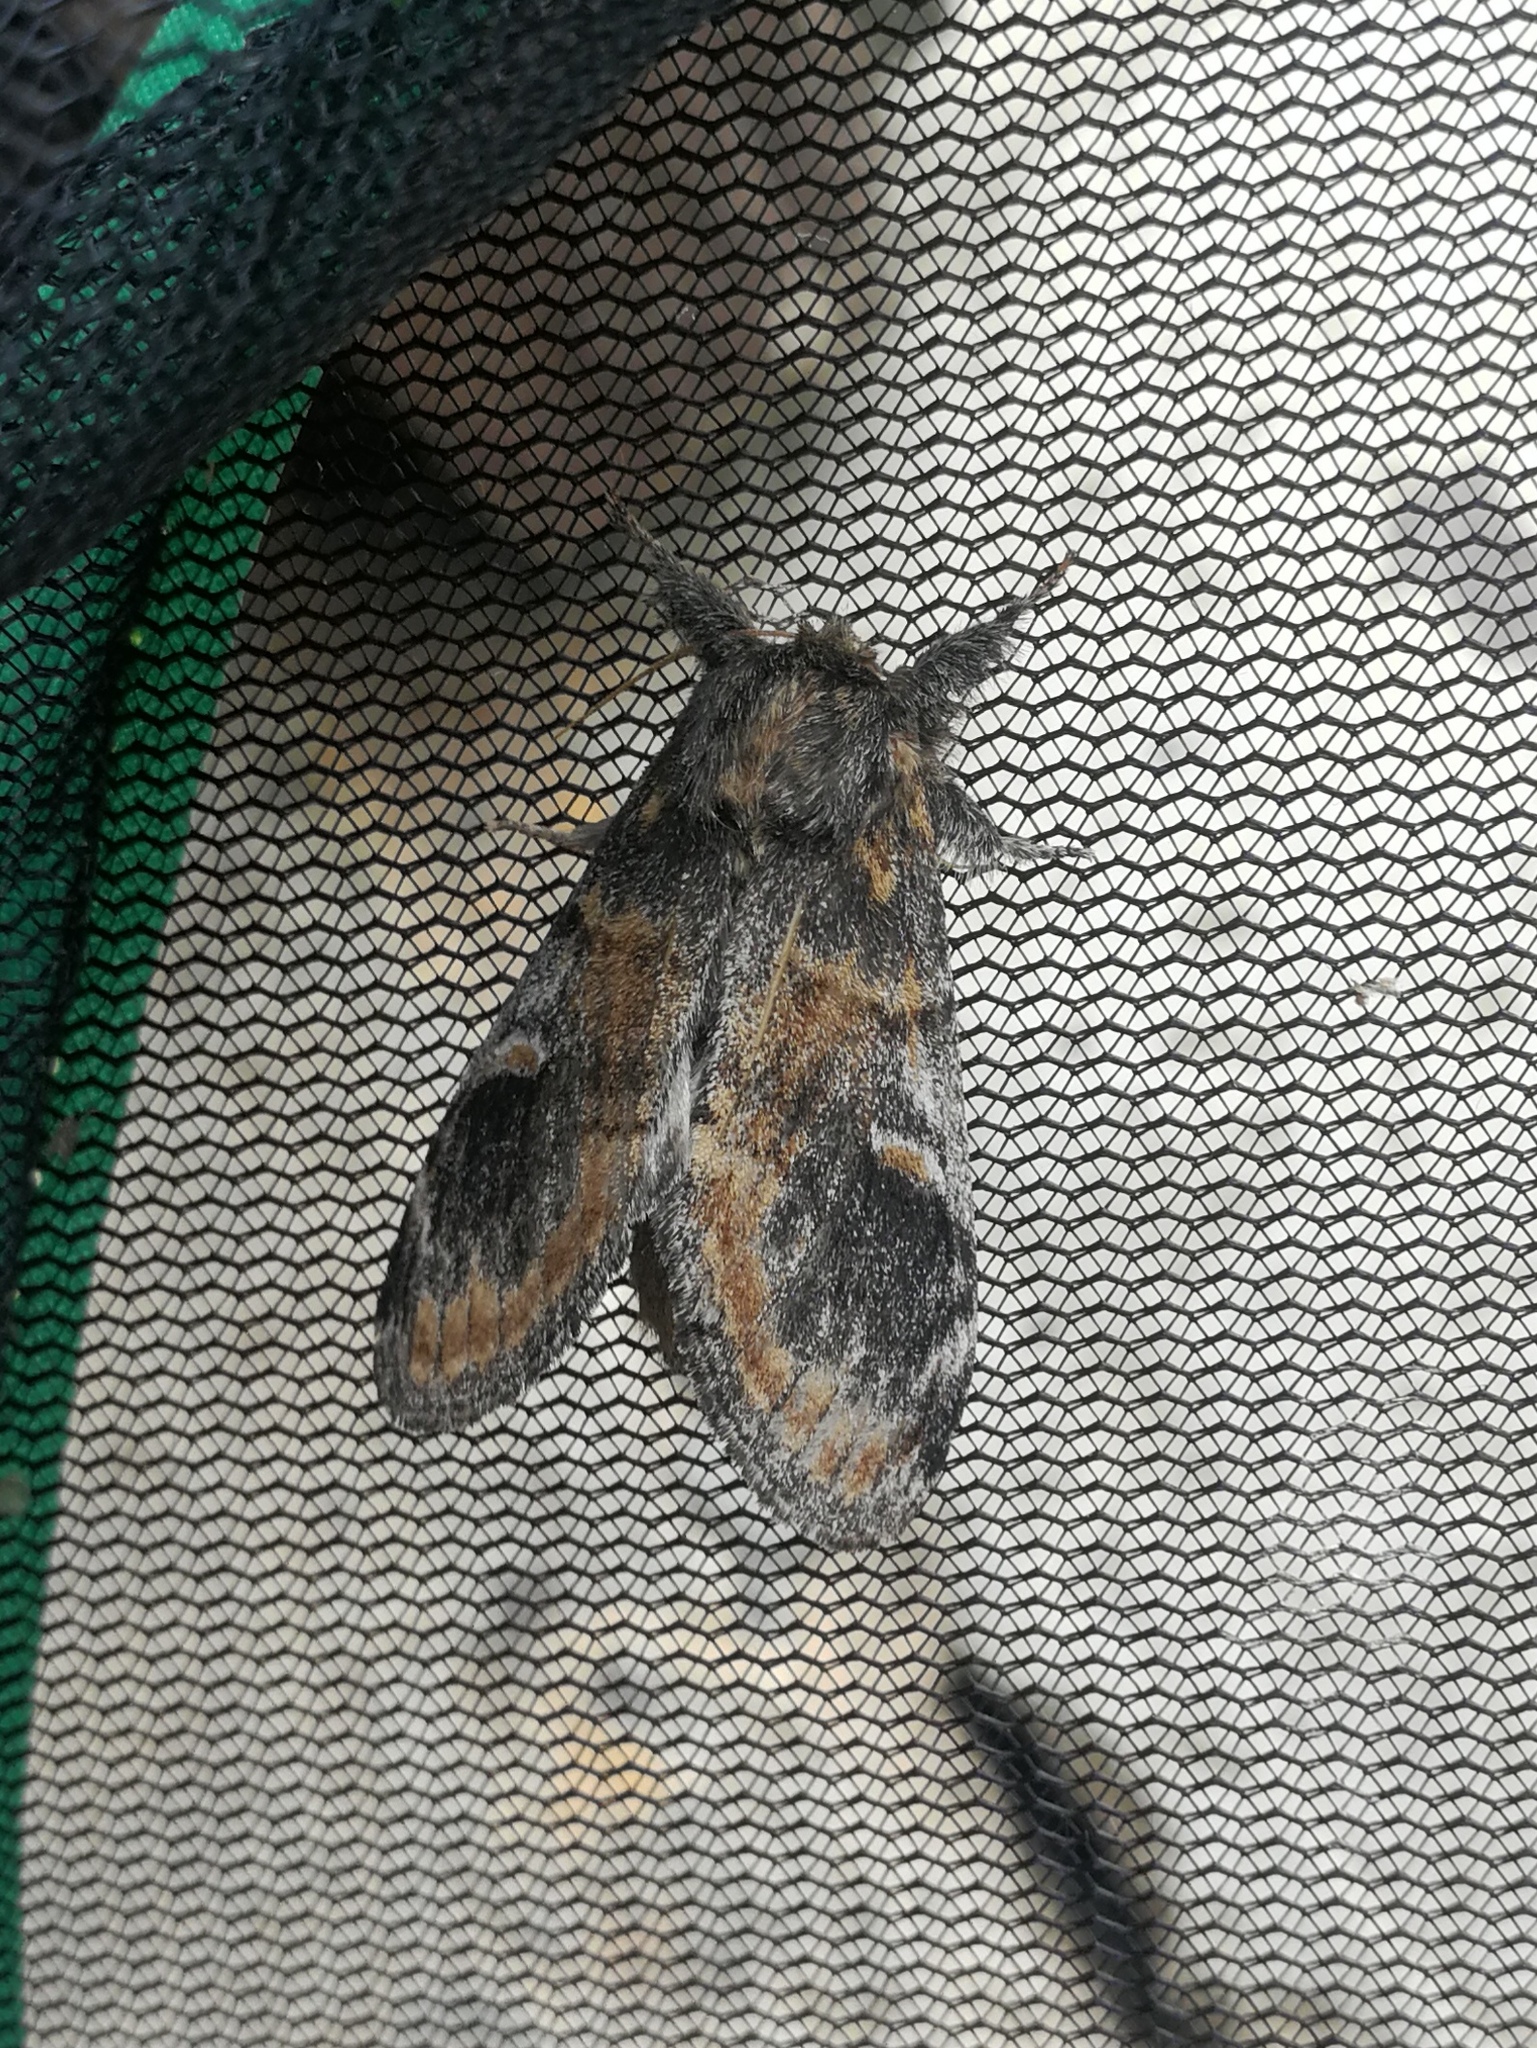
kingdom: Animalia
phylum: Arthropoda
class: Insecta
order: Lepidoptera
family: Notodontidae
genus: Notodonta
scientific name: Notodonta tritophus
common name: Three-humped prominent
